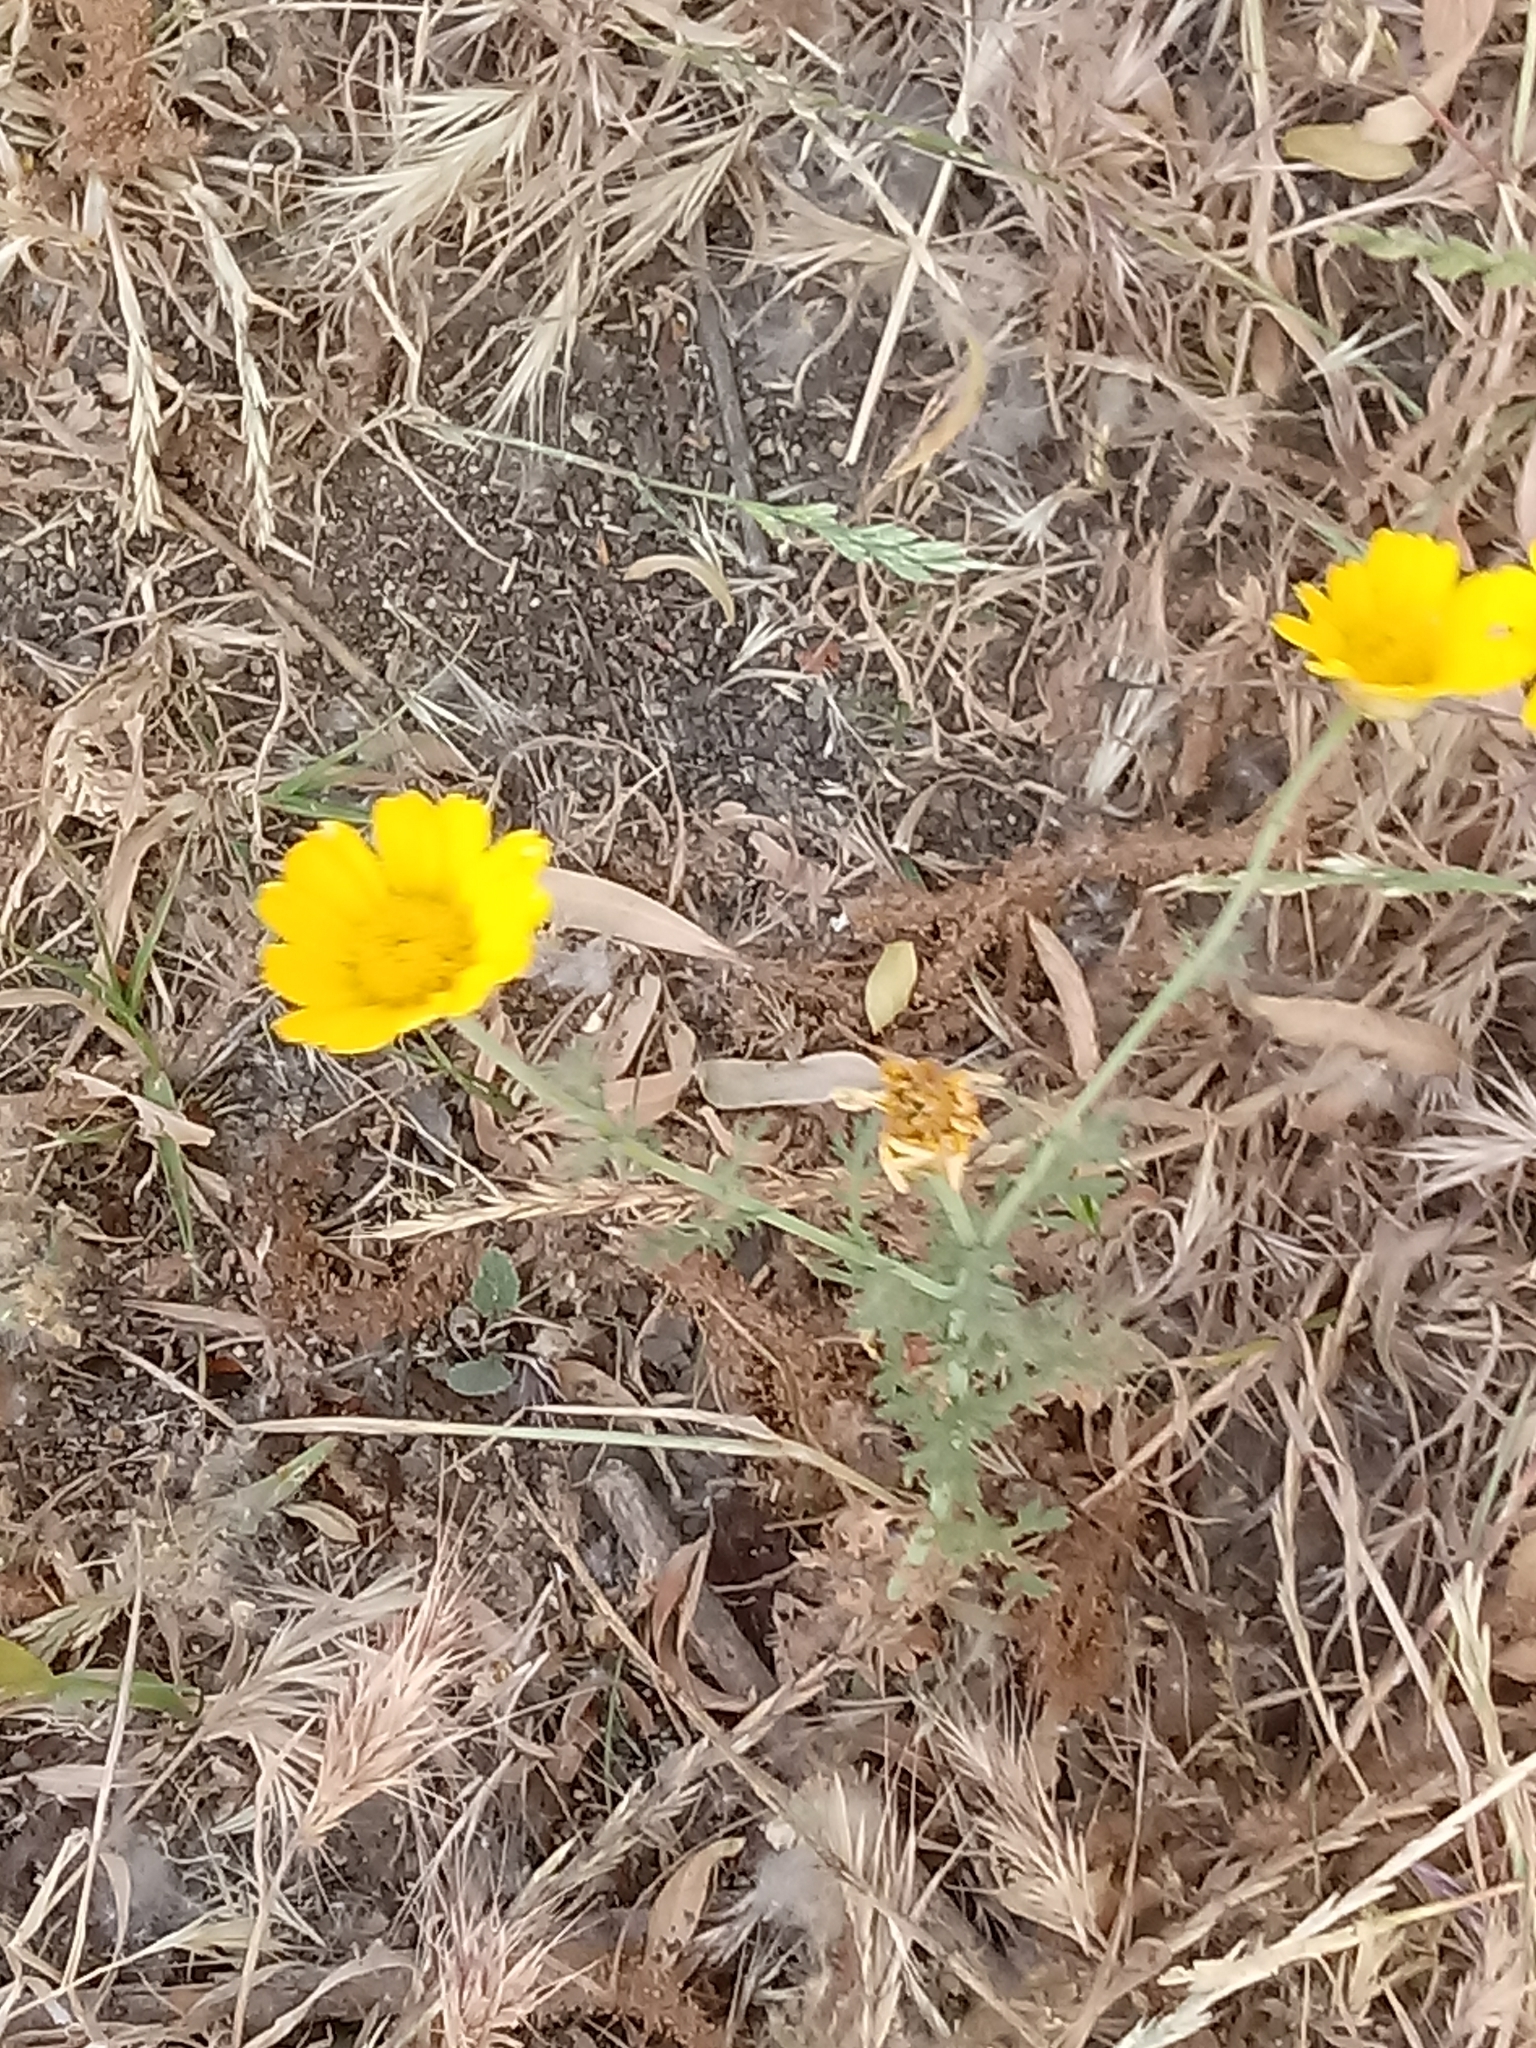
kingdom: Plantae
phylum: Tracheophyta
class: Magnoliopsida
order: Asterales
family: Asteraceae
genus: Glebionis
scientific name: Glebionis coronaria
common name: Crowndaisy
